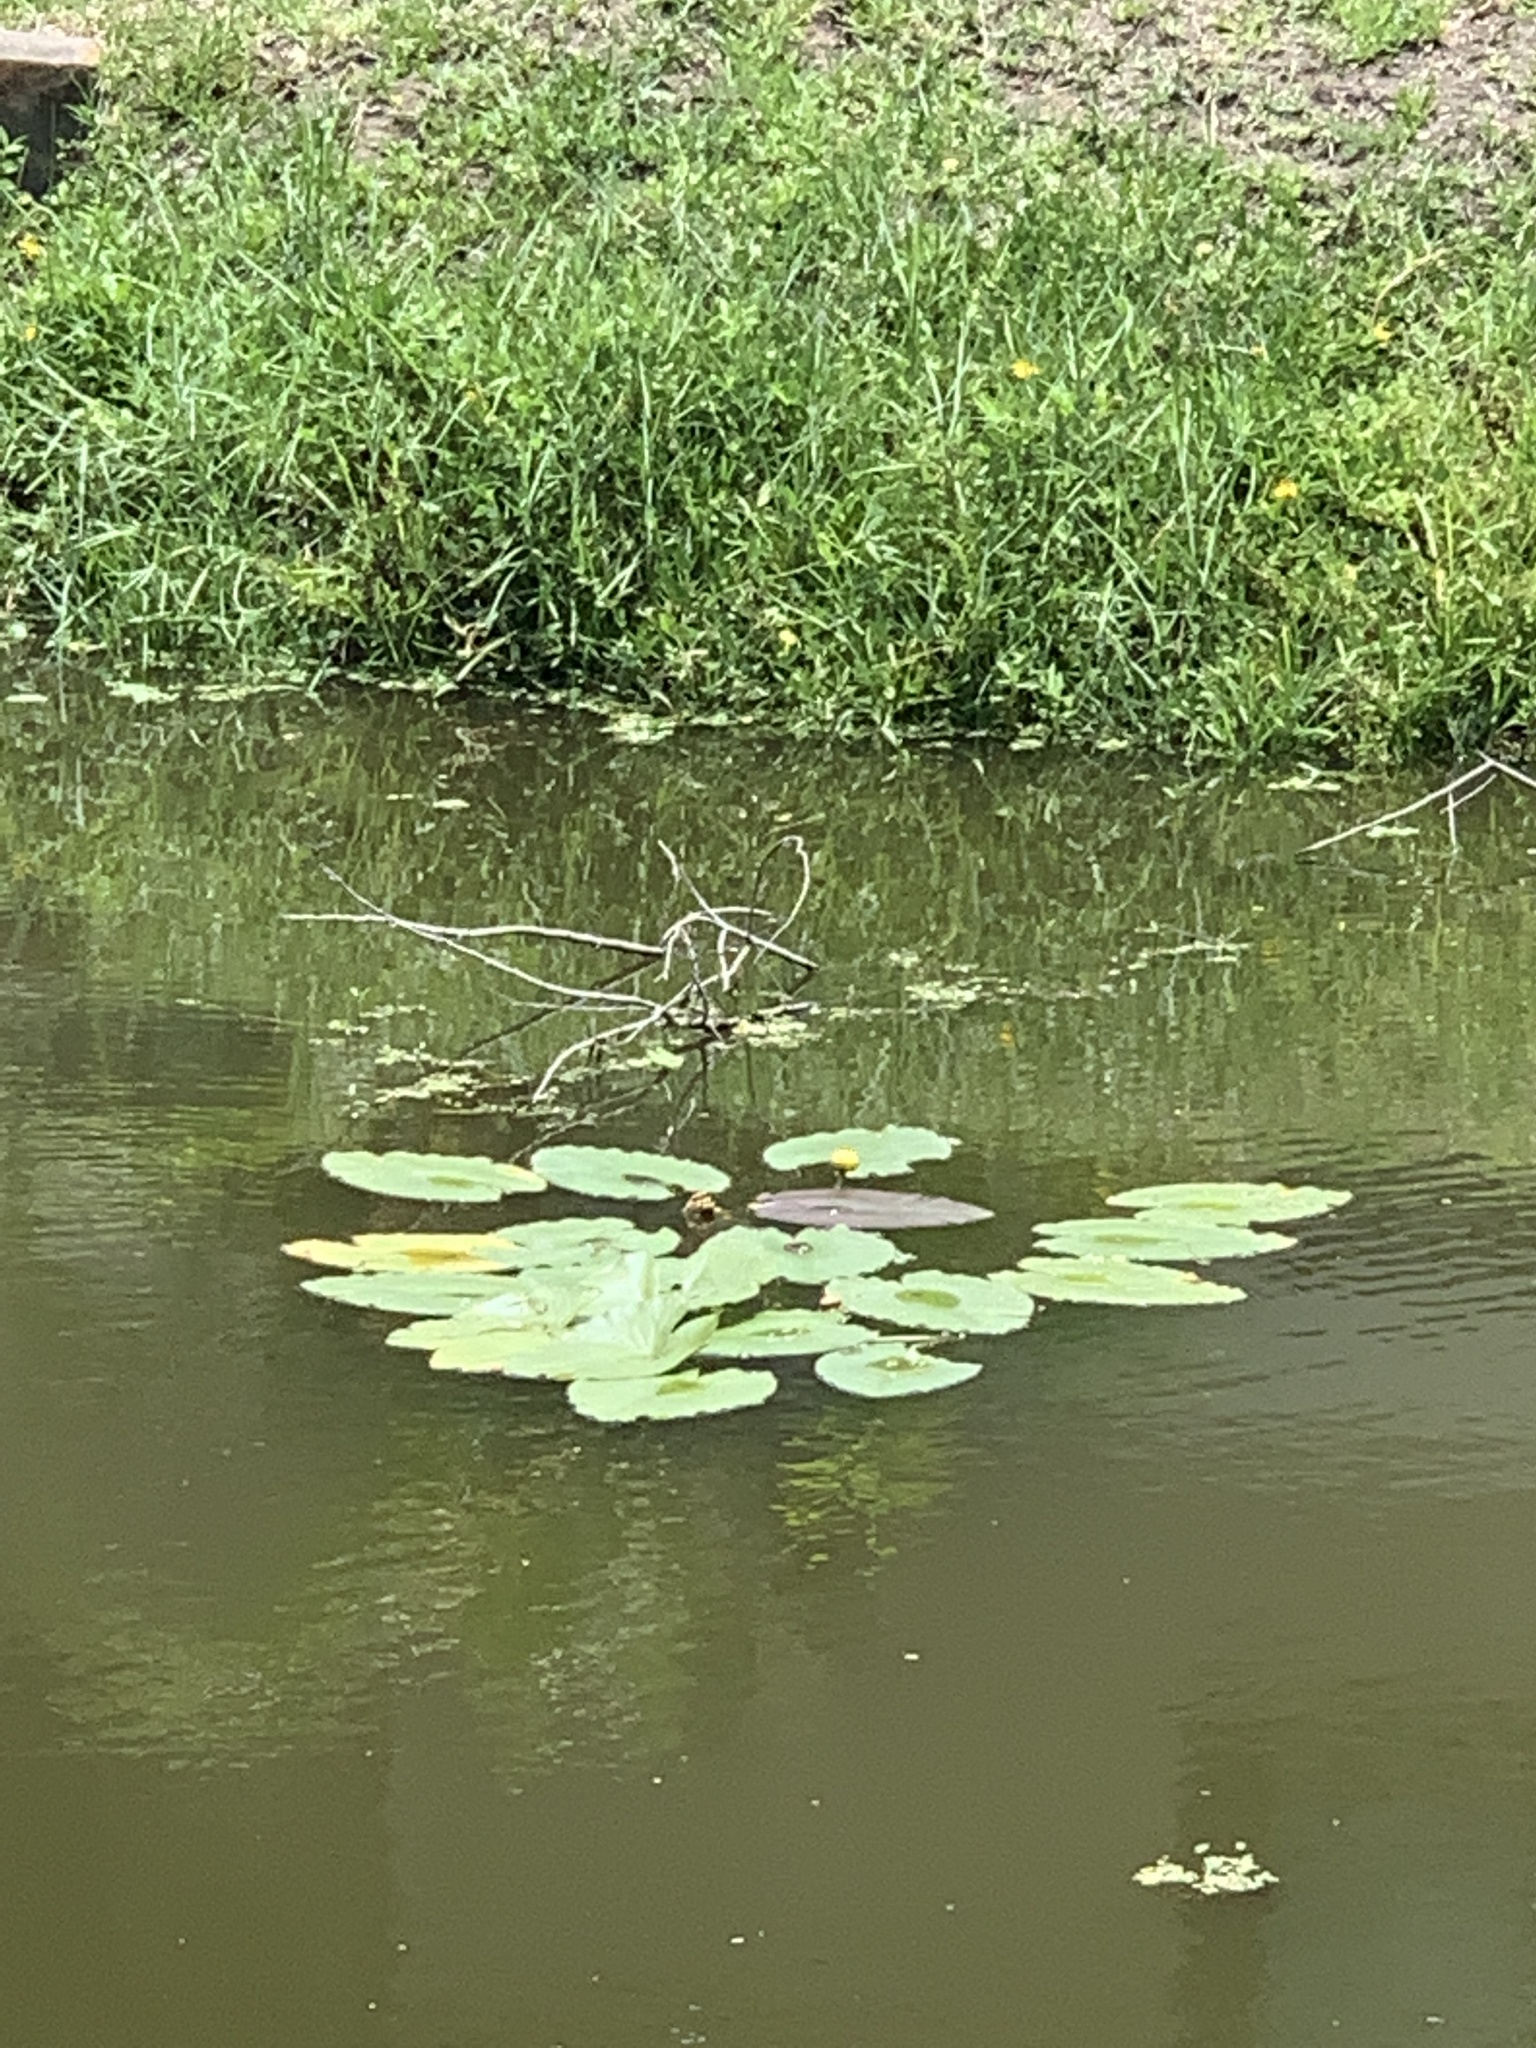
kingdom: Plantae
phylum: Tracheophyta
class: Magnoliopsida
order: Nymphaeales
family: Nymphaeaceae
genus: Nuphar
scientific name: Nuphar advena
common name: Spatter-dock
